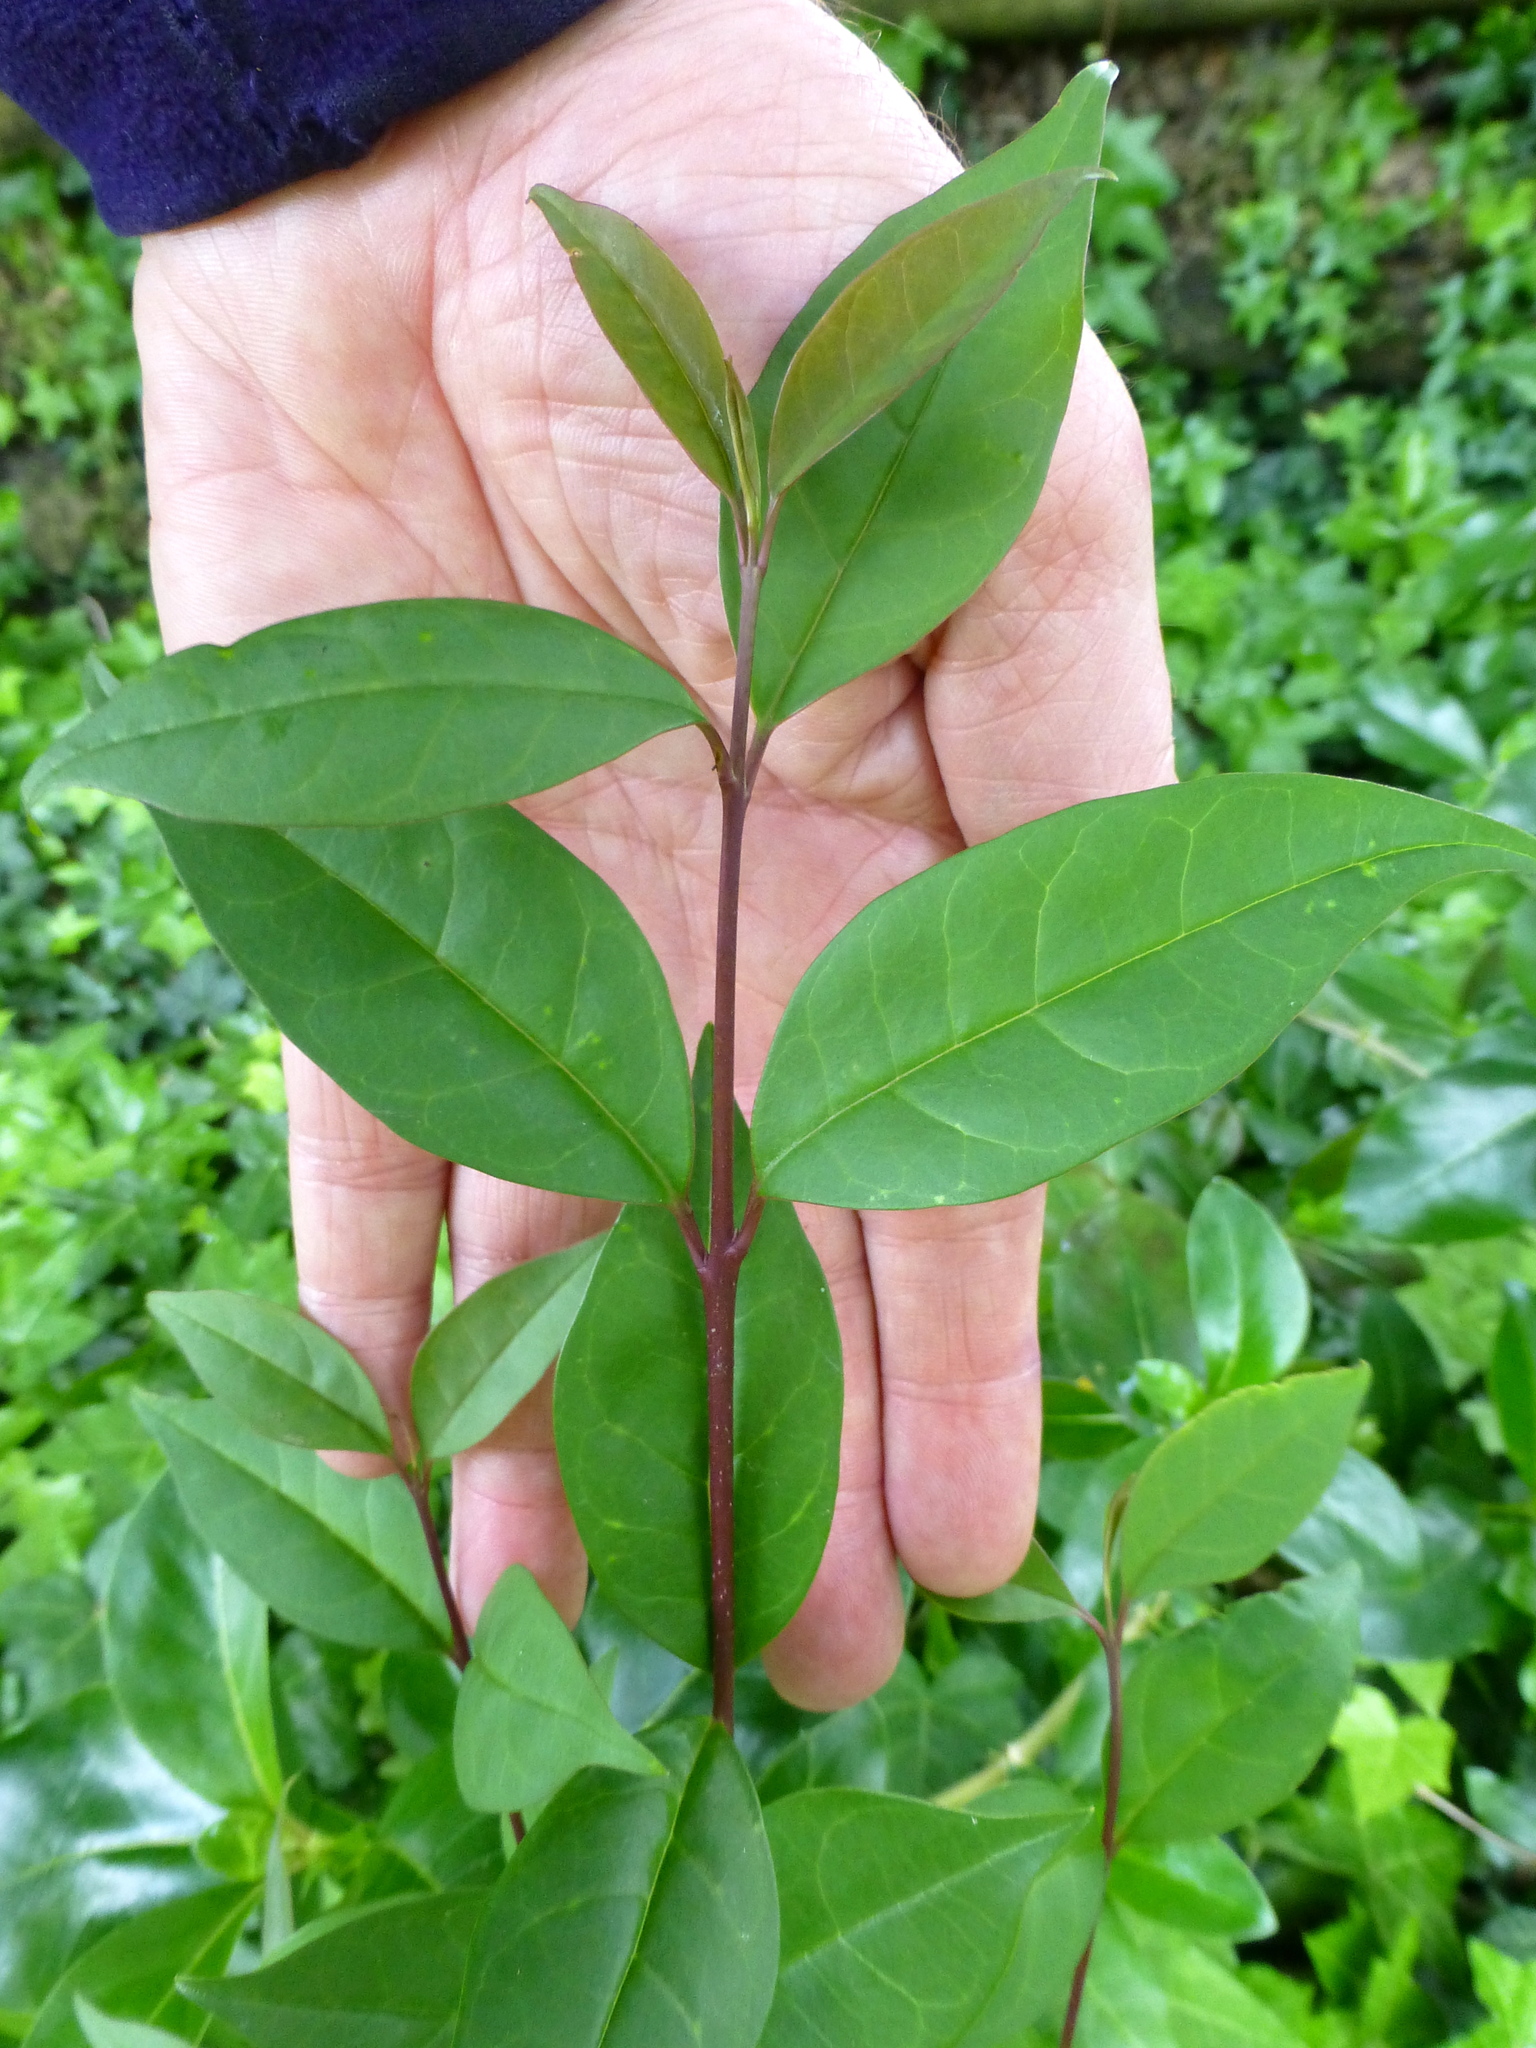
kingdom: Plantae
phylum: Tracheophyta
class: Magnoliopsida
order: Lamiales
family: Oleaceae
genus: Ligustrum
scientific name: Ligustrum lucidum
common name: Glossy privet
